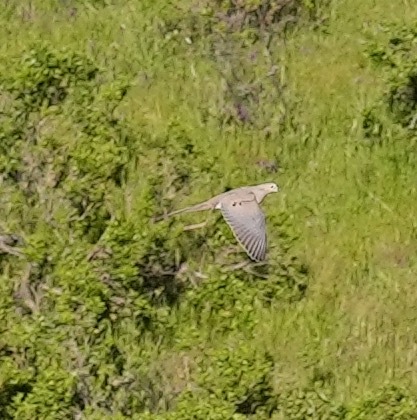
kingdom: Animalia
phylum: Chordata
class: Aves
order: Columbiformes
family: Columbidae
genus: Zenaida
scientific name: Zenaida macroura
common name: Mourning dove
